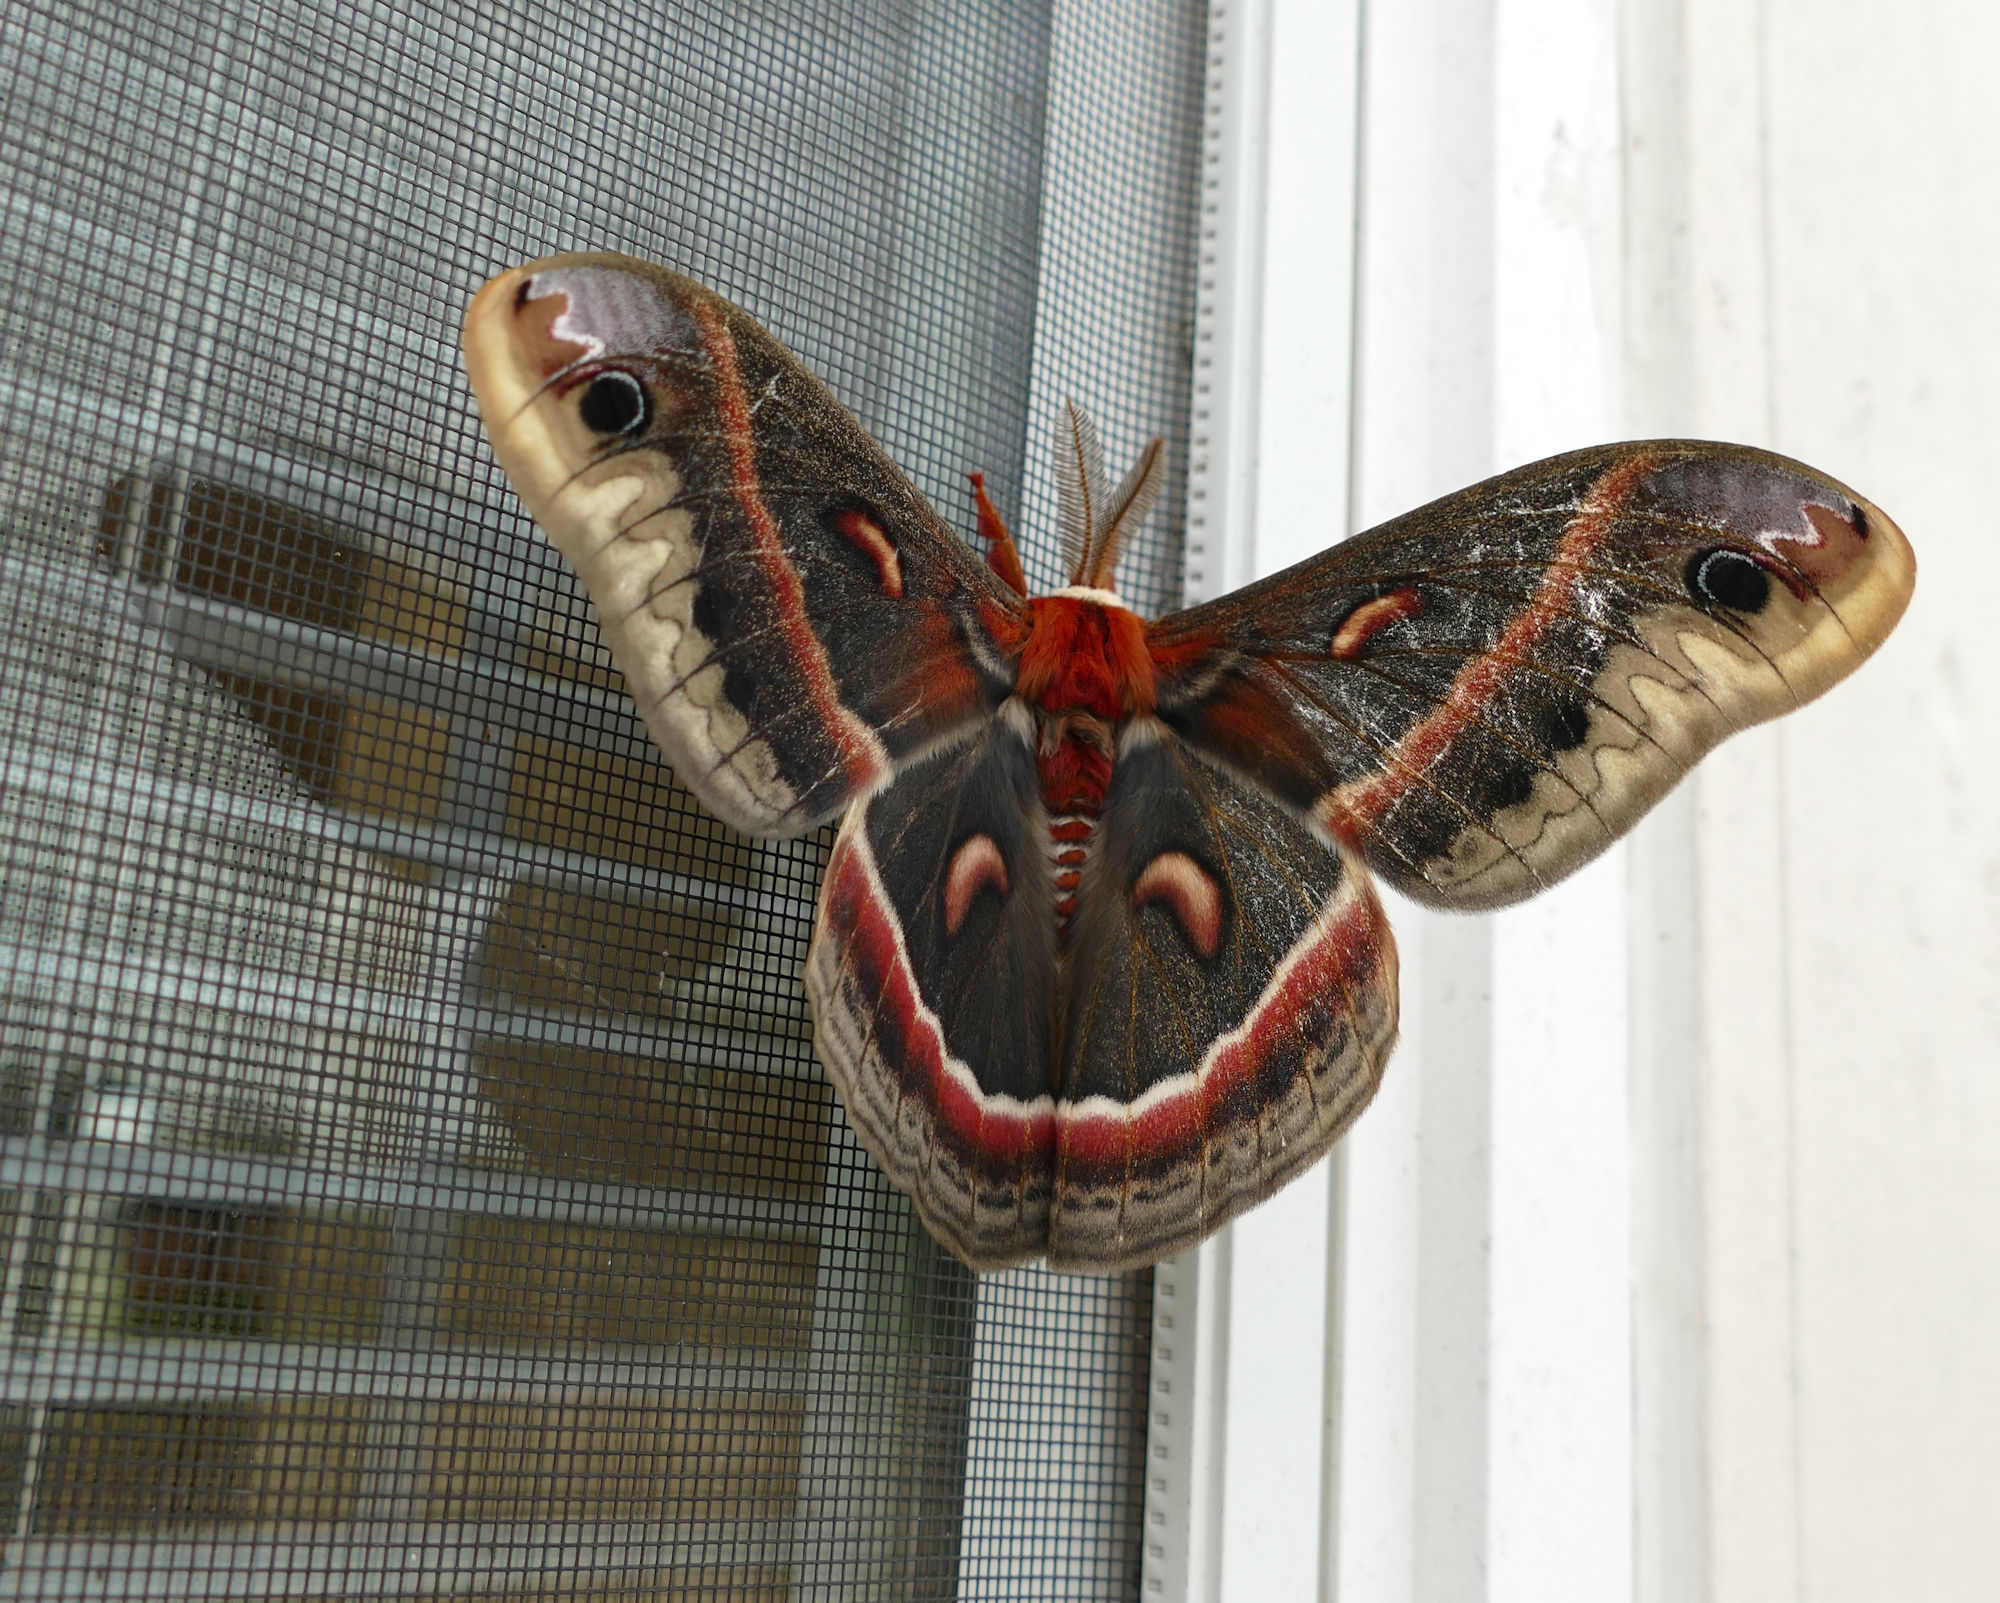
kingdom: Animalia
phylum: Arthropoda
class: Insecta
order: Lepidoptera
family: Saturniidae
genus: Hyalophora
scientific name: Hyalophora cecropia
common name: Cecropia silkmoth
